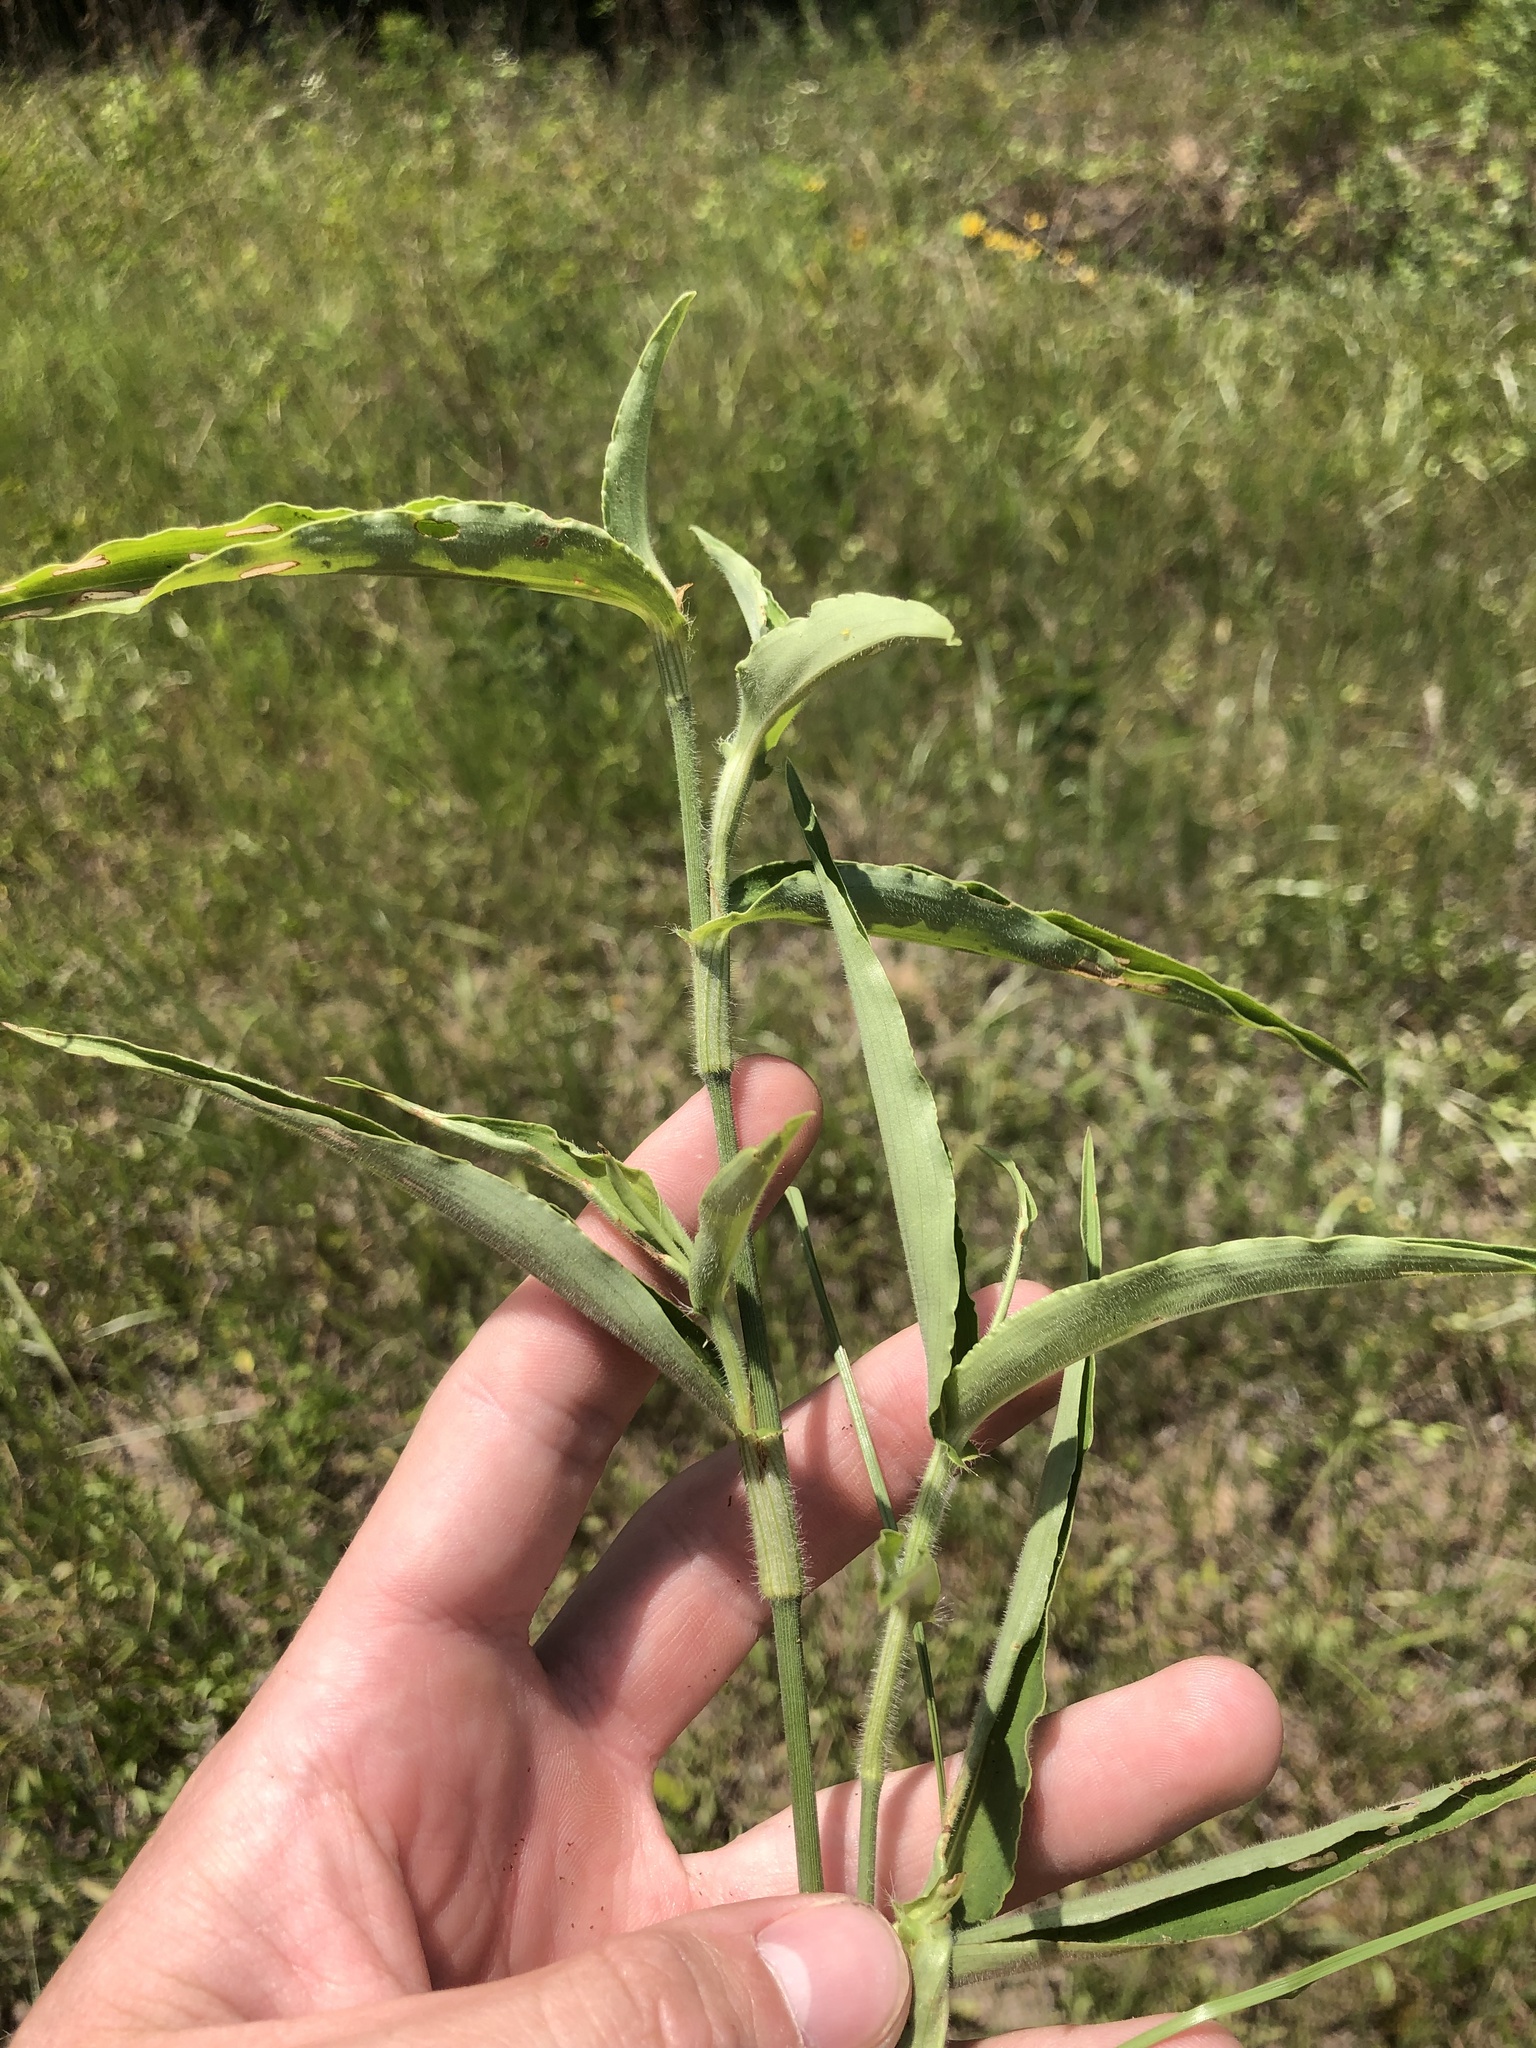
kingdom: Plantae
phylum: Tracheophyta
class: Liliopsida
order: Commelinales
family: Commelinaceae
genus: Commelina
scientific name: Commelina erecta
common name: Blousel blommetjie
